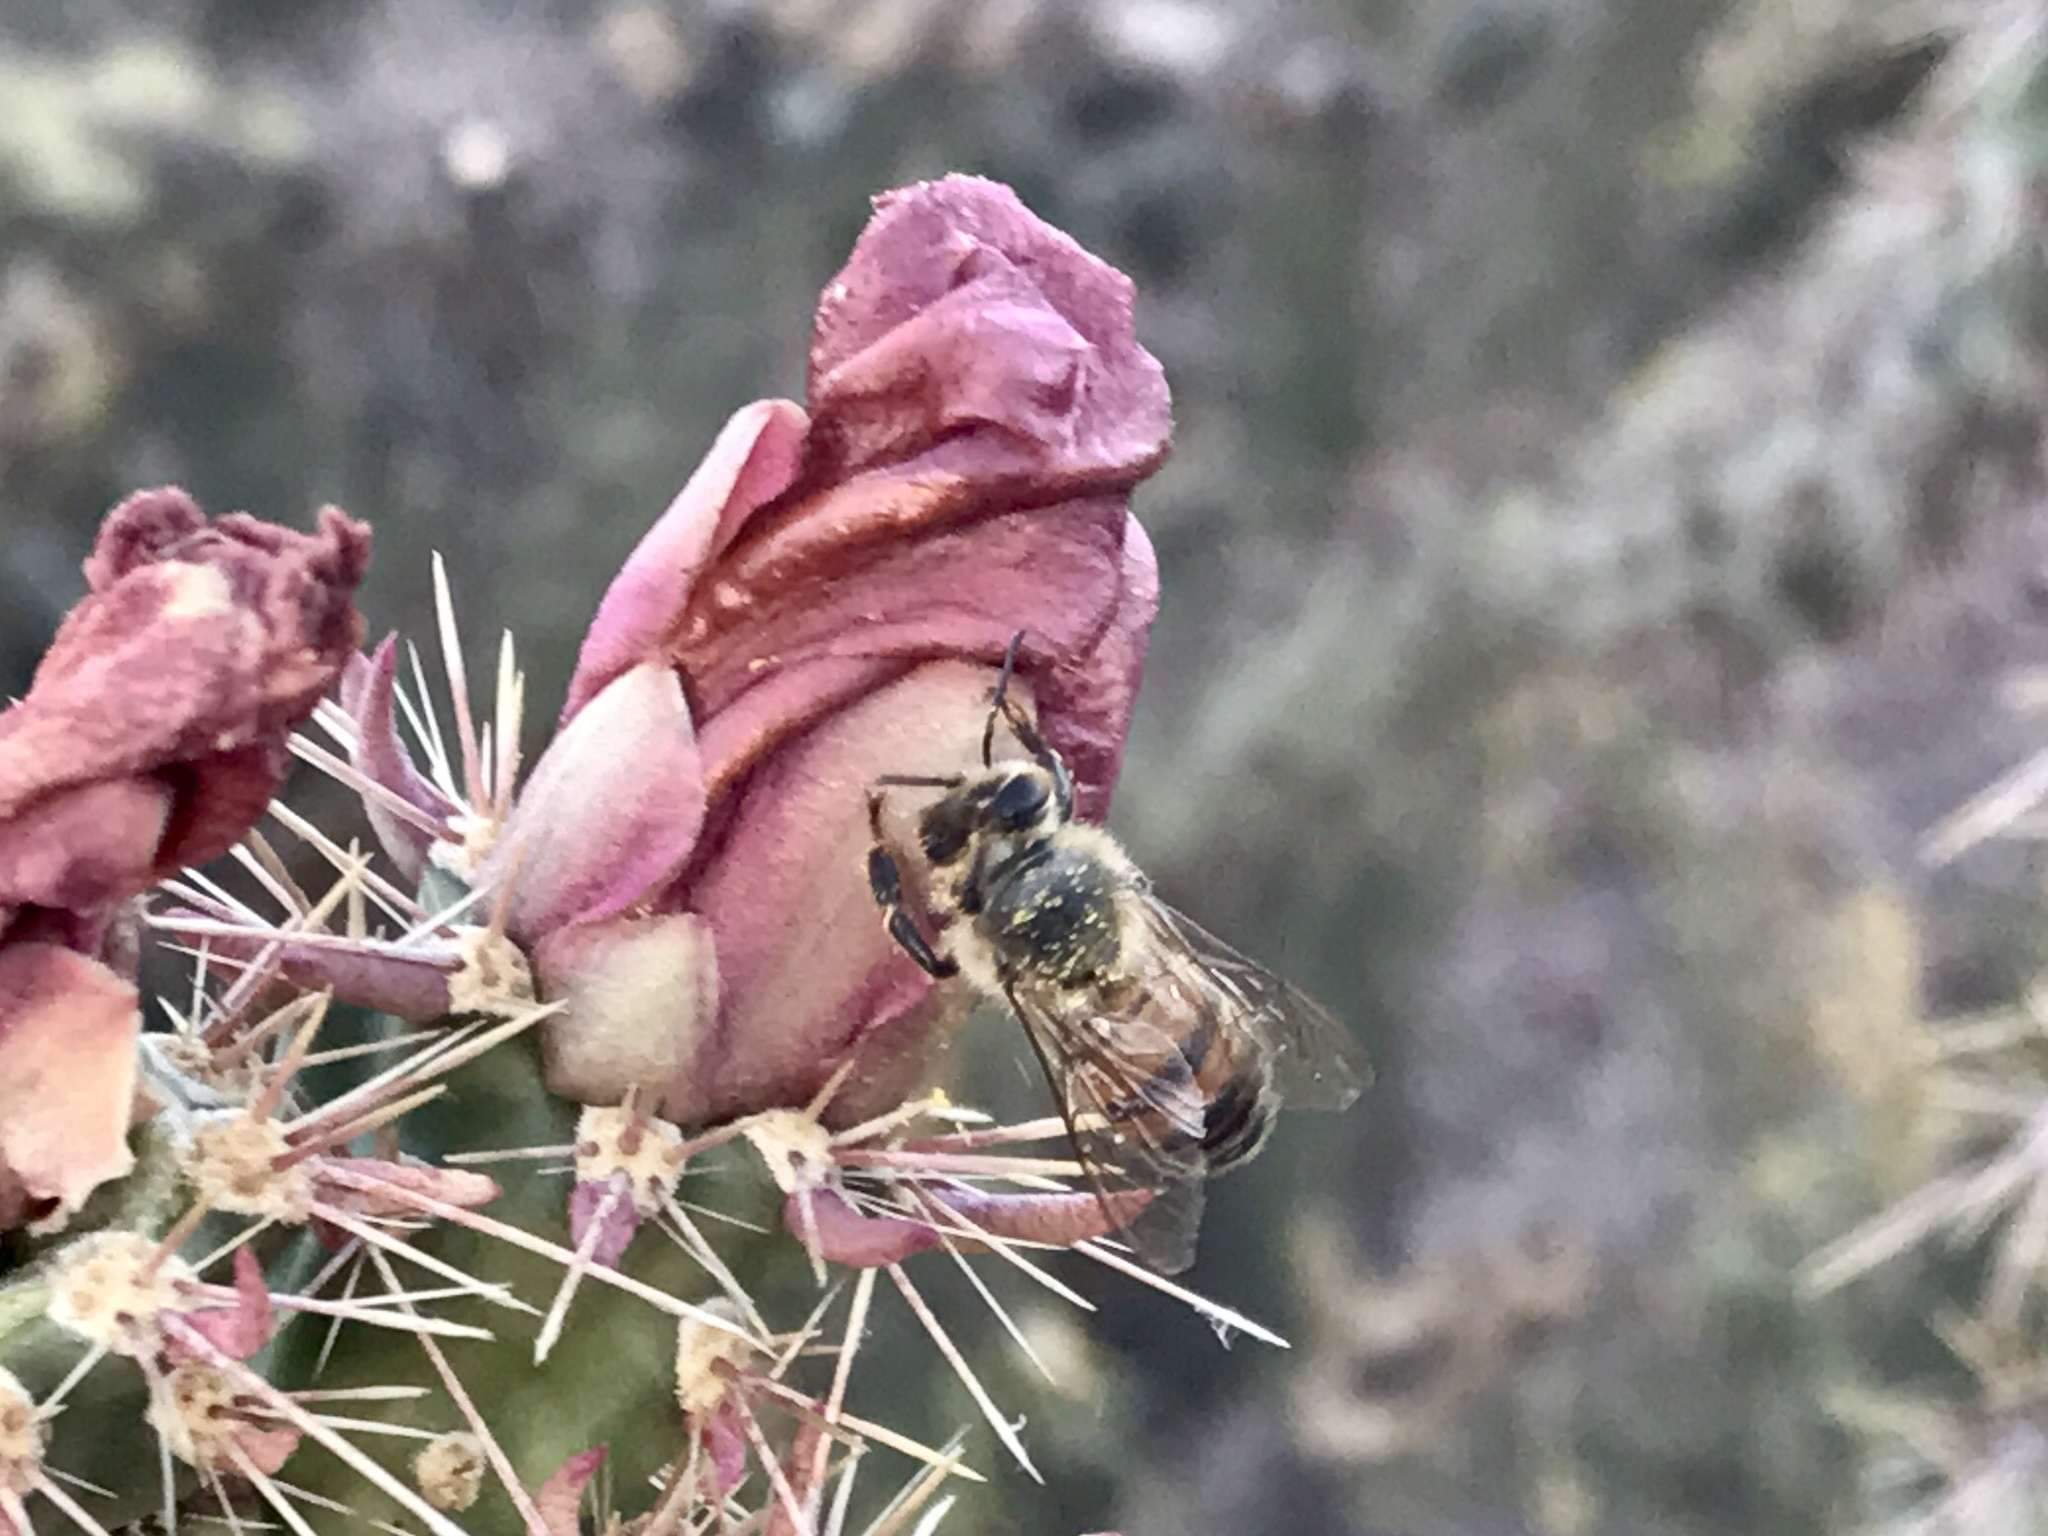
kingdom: Animalia
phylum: Arthropoda
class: Insecta
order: Hymenoptera
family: Apidae
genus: Apis
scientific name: Apis mellifera
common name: Honey bee
